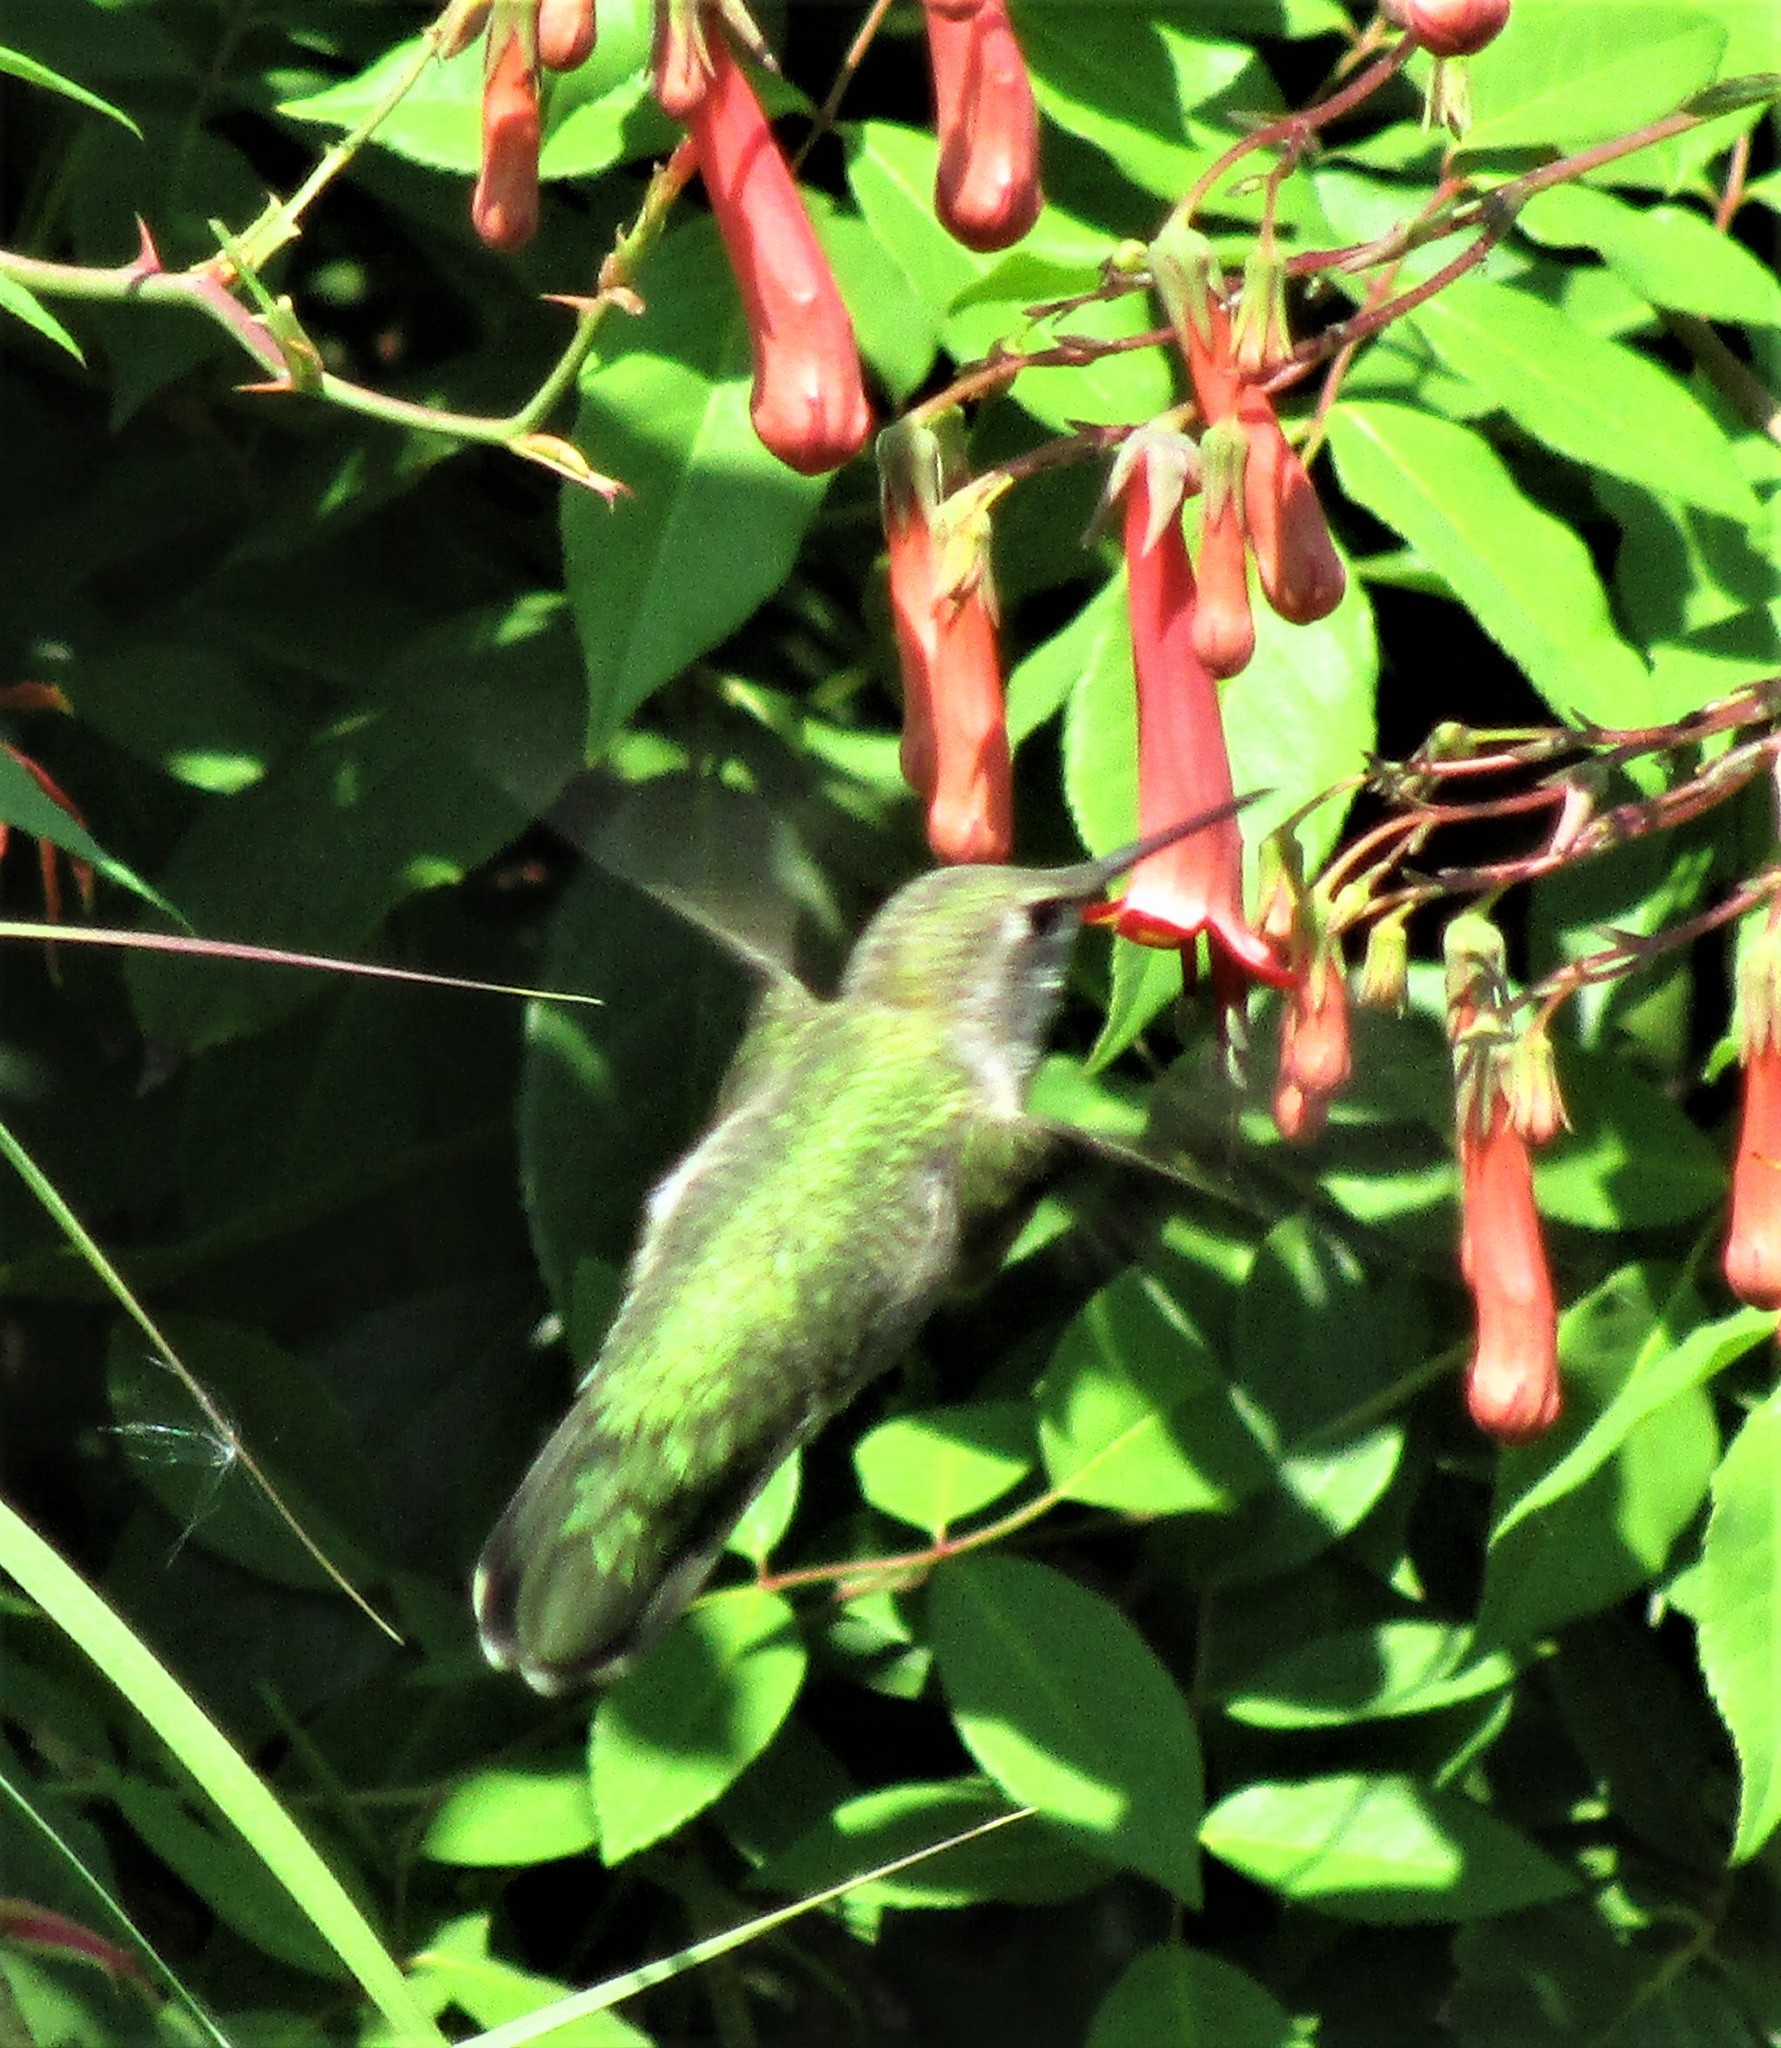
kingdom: Animalia
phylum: Chordata
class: Aves
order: Apodiformes
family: Trochilidae
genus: Calypte
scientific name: Calypte anna
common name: Anna's hummingbird
